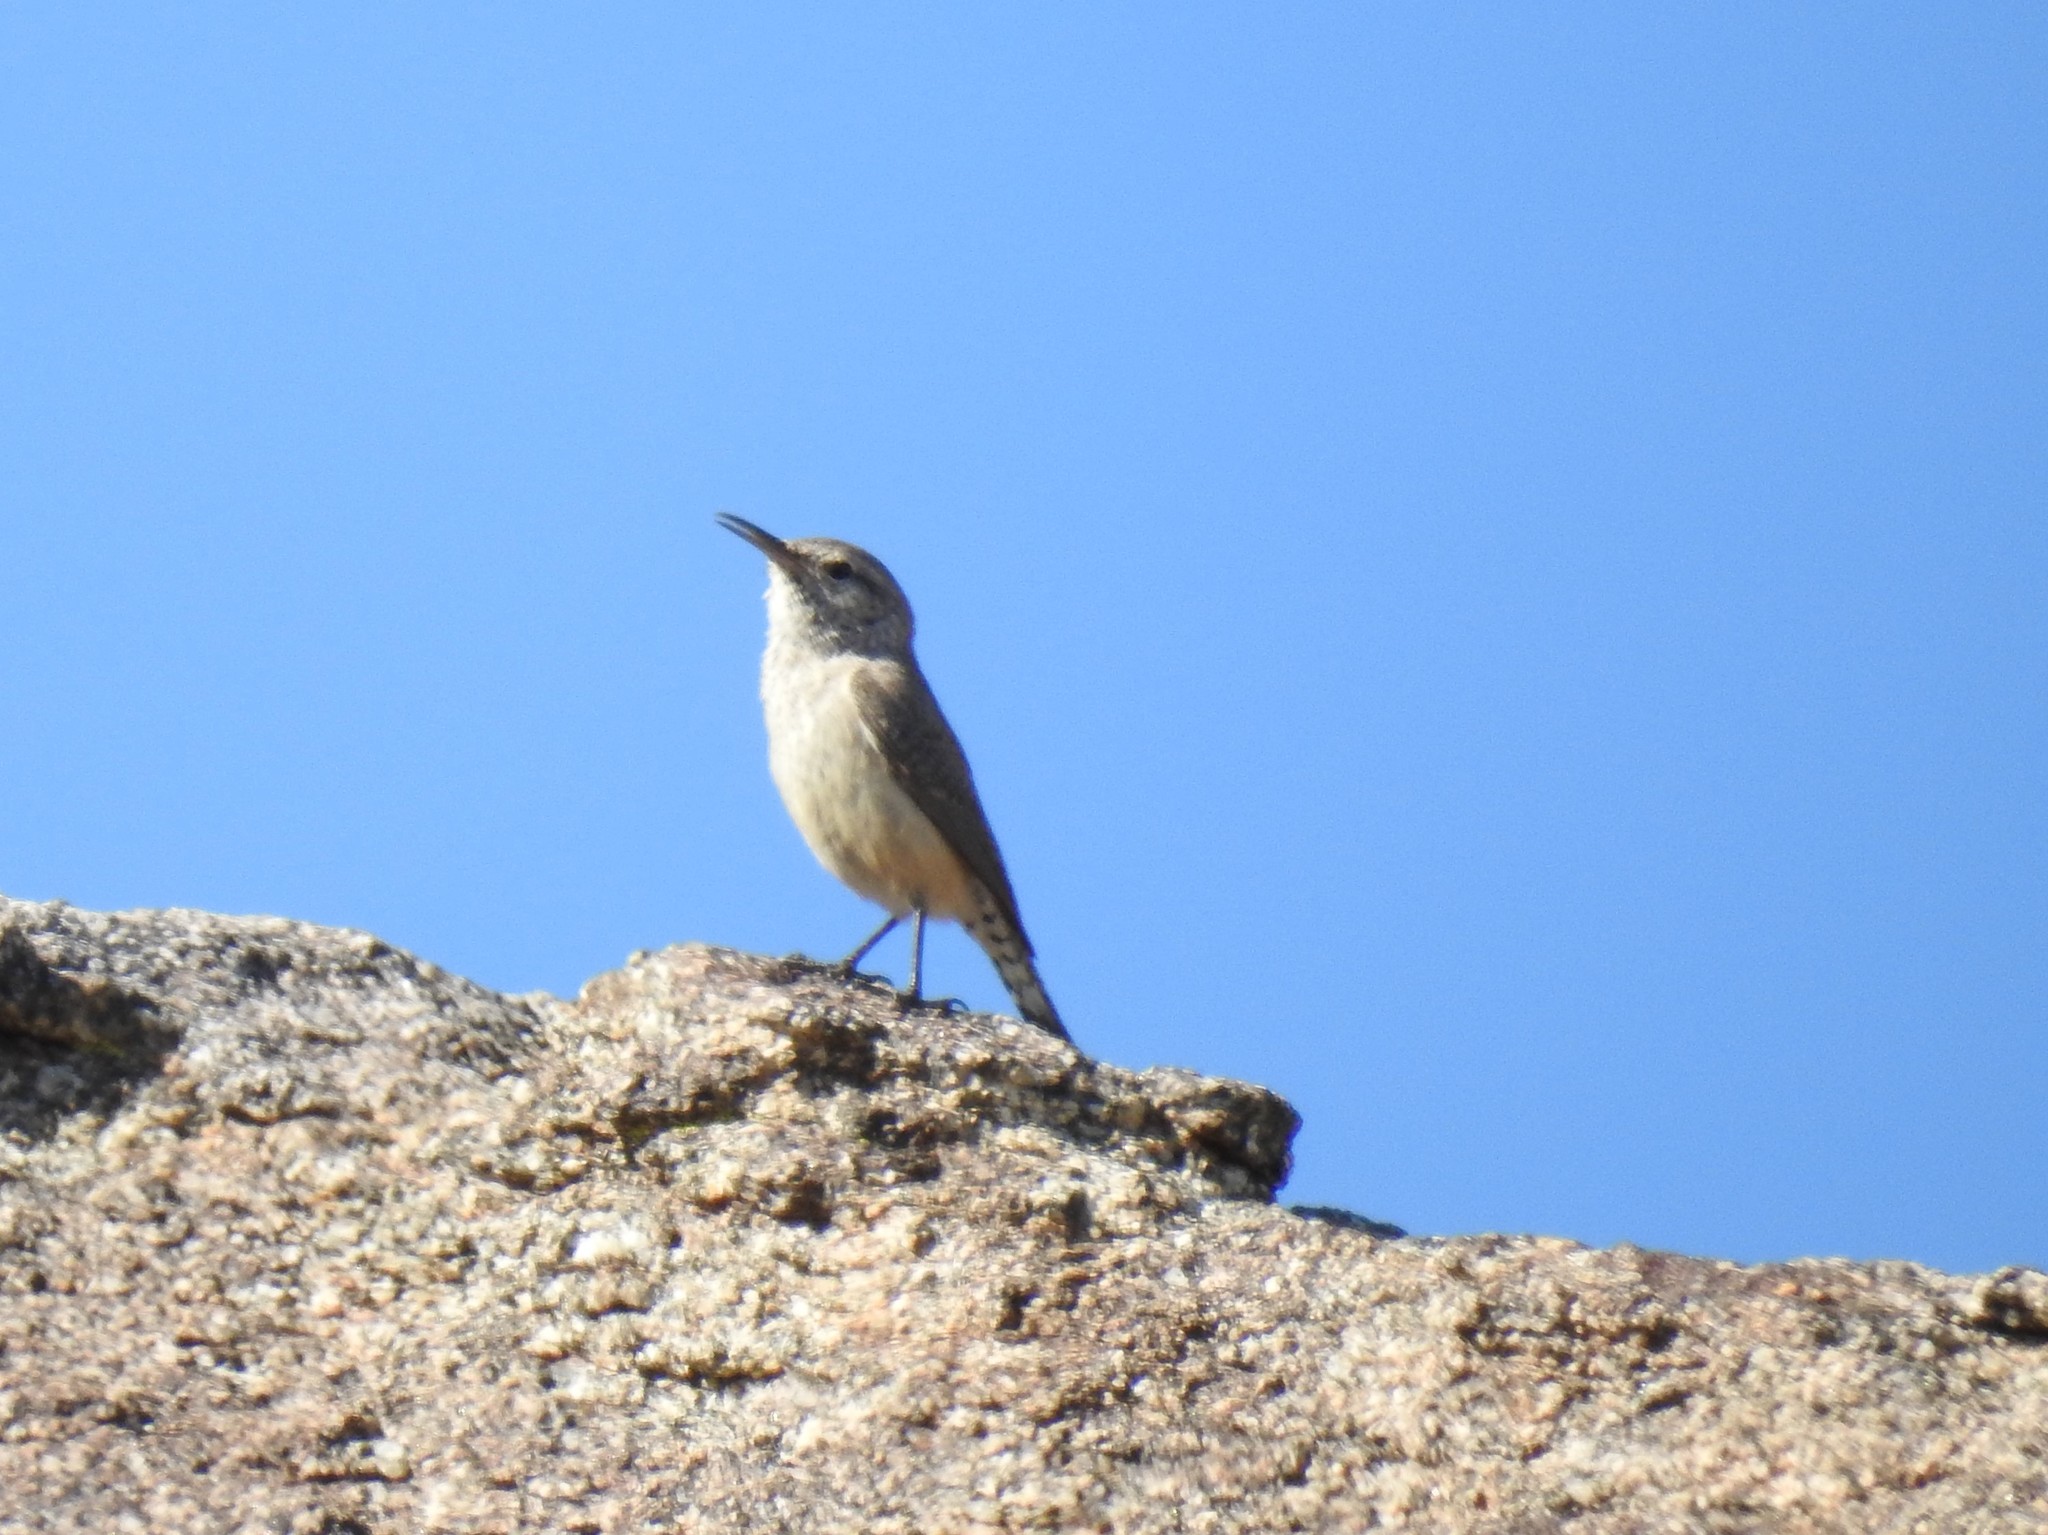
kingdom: Animalia
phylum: Chordata
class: Aves
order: Passeriformes
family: Troglodytidae
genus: Salpinctes
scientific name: Salpinctes obsoletus
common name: Rock wren
